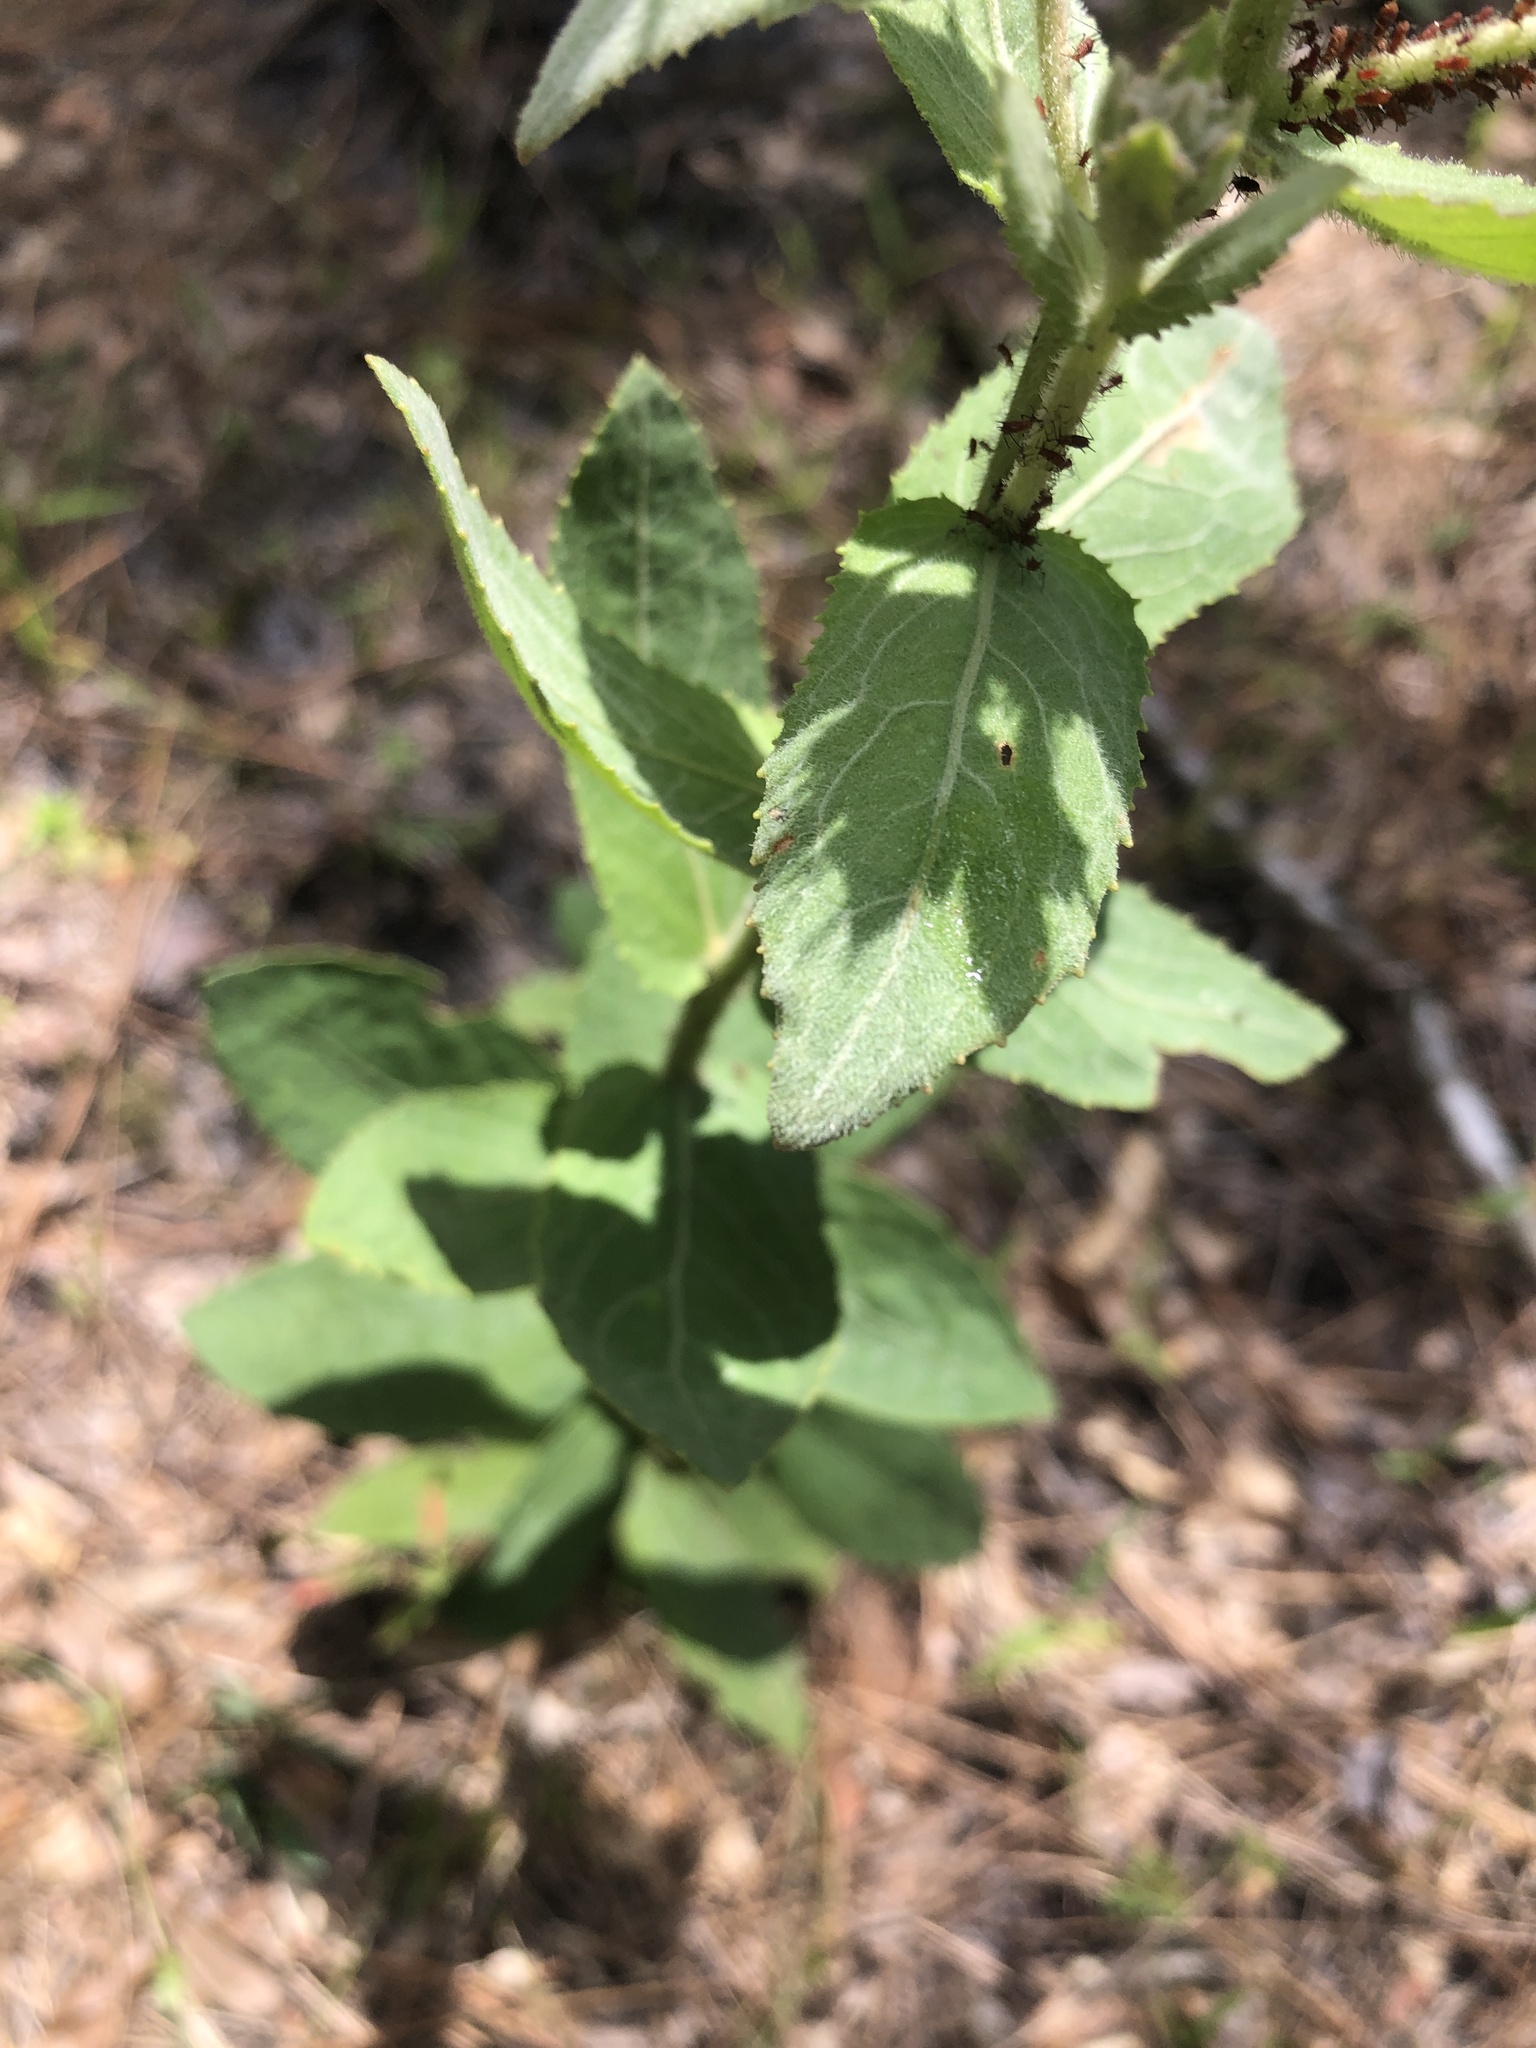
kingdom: Plantae
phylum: Tracheophyta
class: Magnoliopsida
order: Asterales
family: Asteraceae
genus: Pluchea
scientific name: Pluchea baccharis
